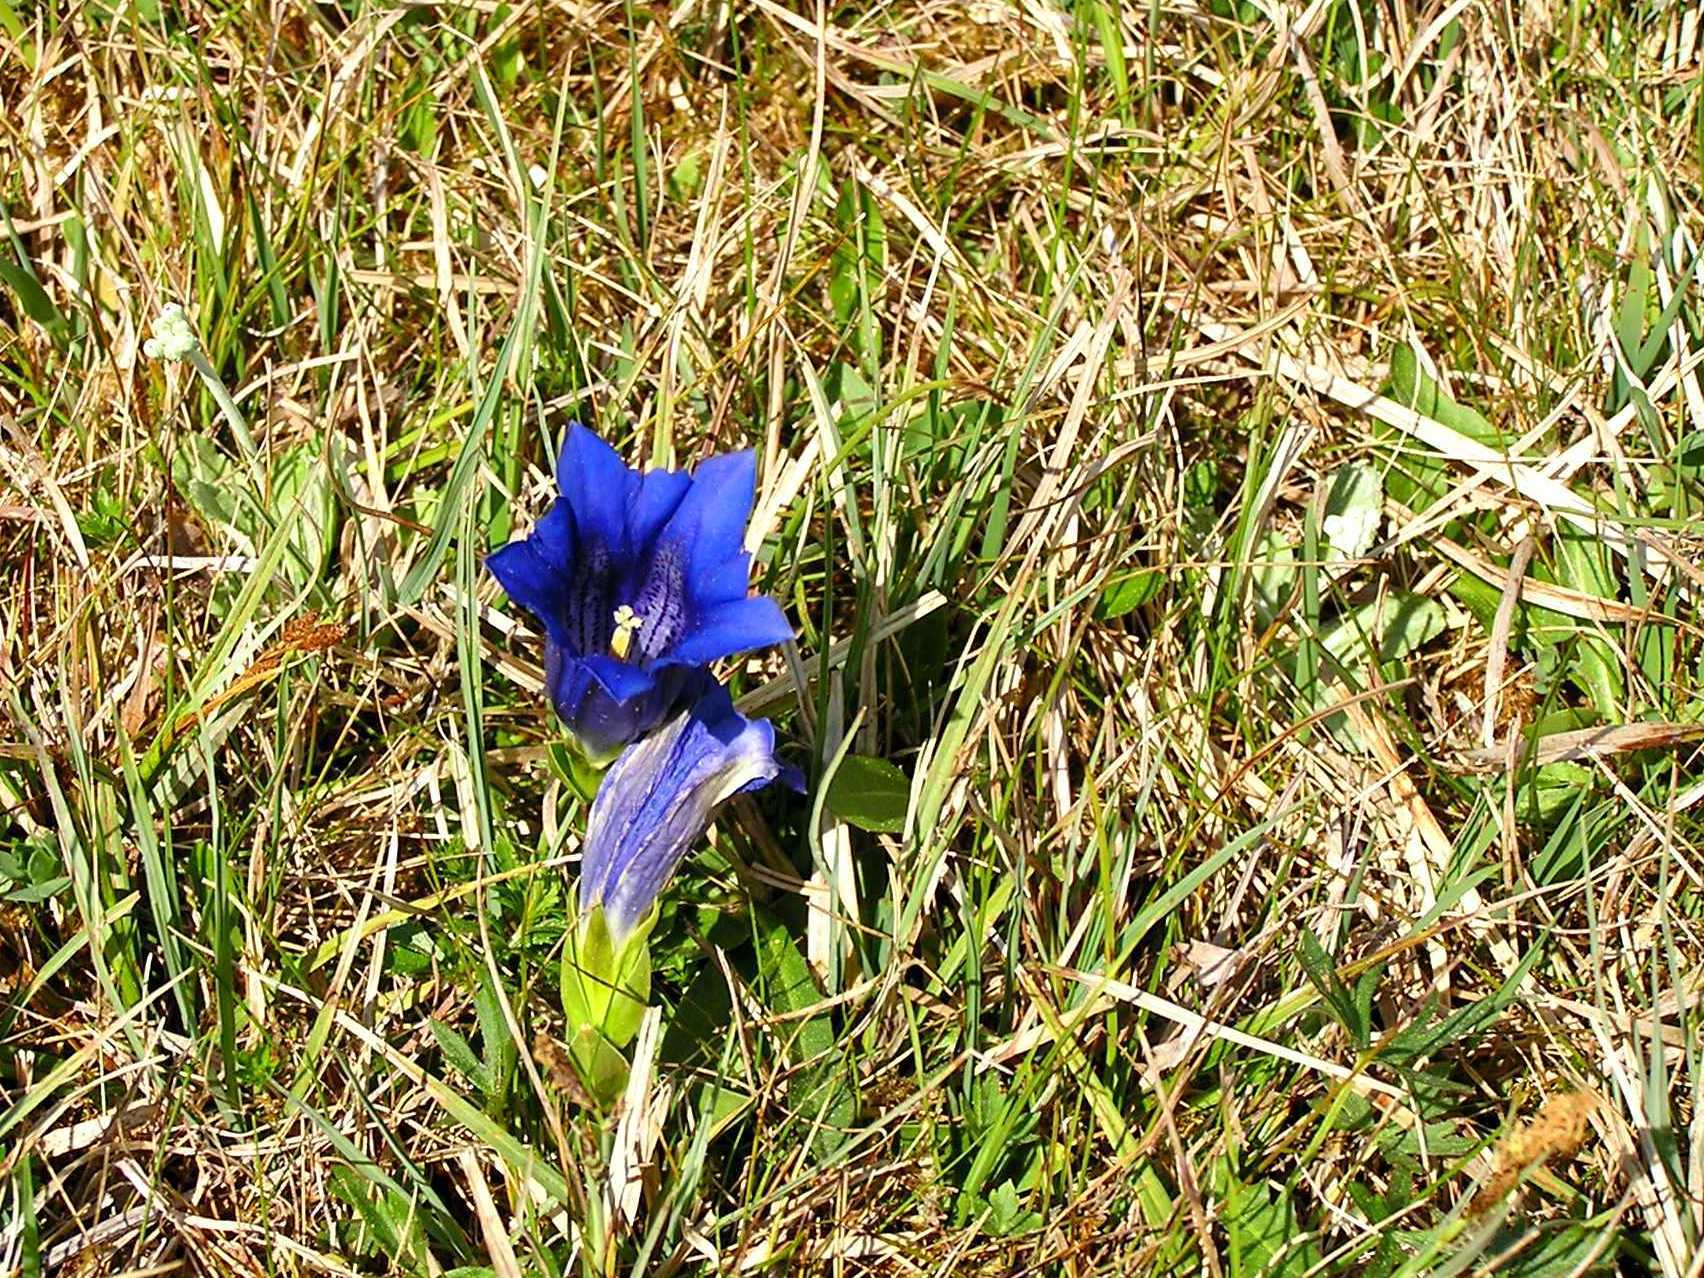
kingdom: Plantae
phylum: Tracheophyta
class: Magnoliopsida
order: Gentianales
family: Gentianaceae
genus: Gentiana
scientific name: Gentiana clusii
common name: Trumpet gentian
